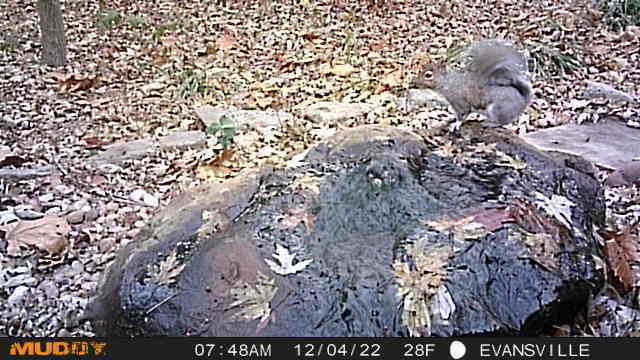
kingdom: Animalia
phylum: Chordata
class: Mammalia
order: Rodentia
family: Sciuridae
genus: Sciurus
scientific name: Sciurus carolinensis
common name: Eastern gray squirrel
